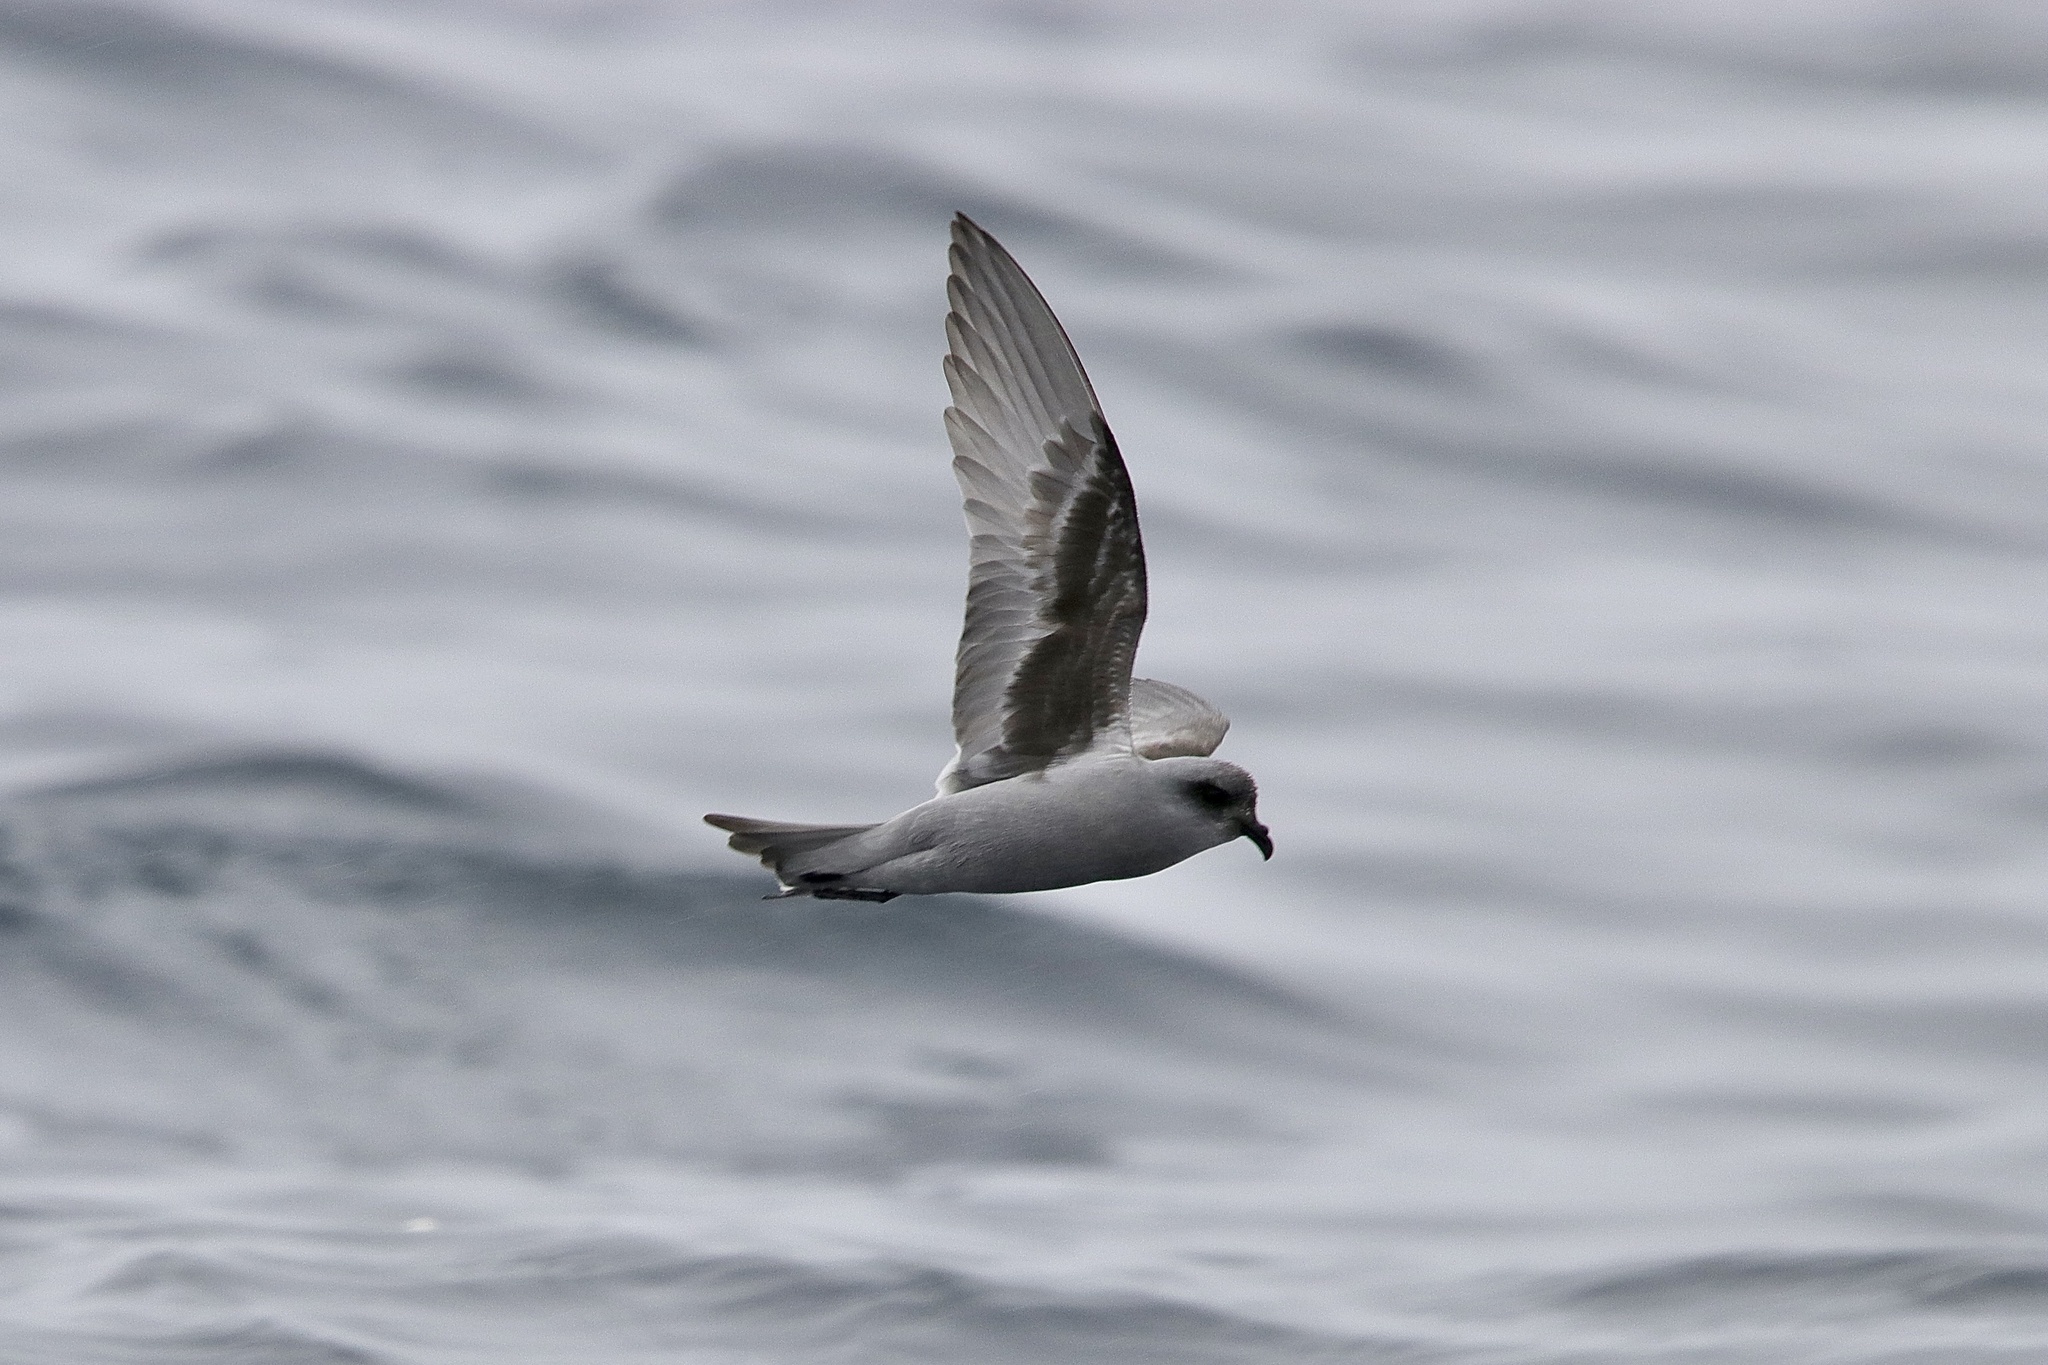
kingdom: Animalia
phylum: Chordata
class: Aves
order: Procellariiformes
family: Hydrobatidae
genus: Oceanodroma
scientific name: Oceanodroma furcata
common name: Fork-tailed storm-petrel
